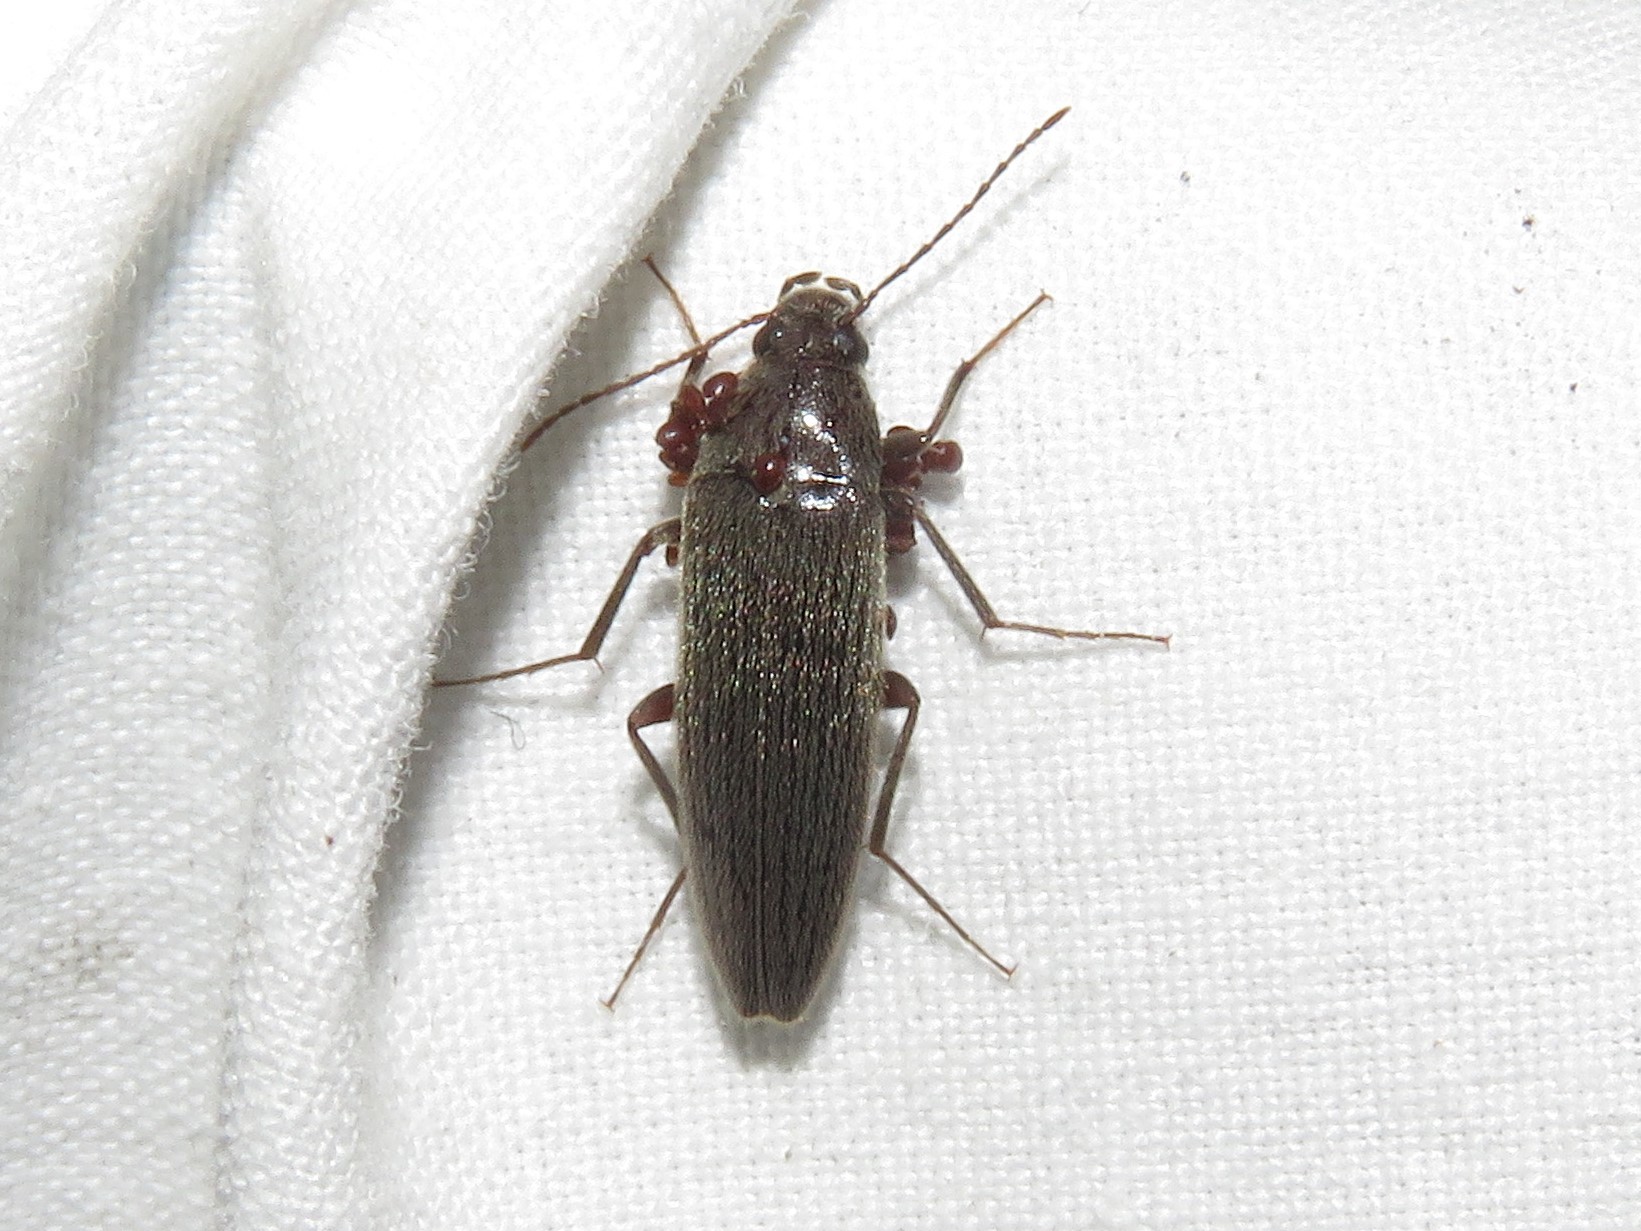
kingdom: Animalia
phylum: Arthropoda
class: Insecta
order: Coleoptera
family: Synchroidae
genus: Synchroa
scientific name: Synchroa punctata
